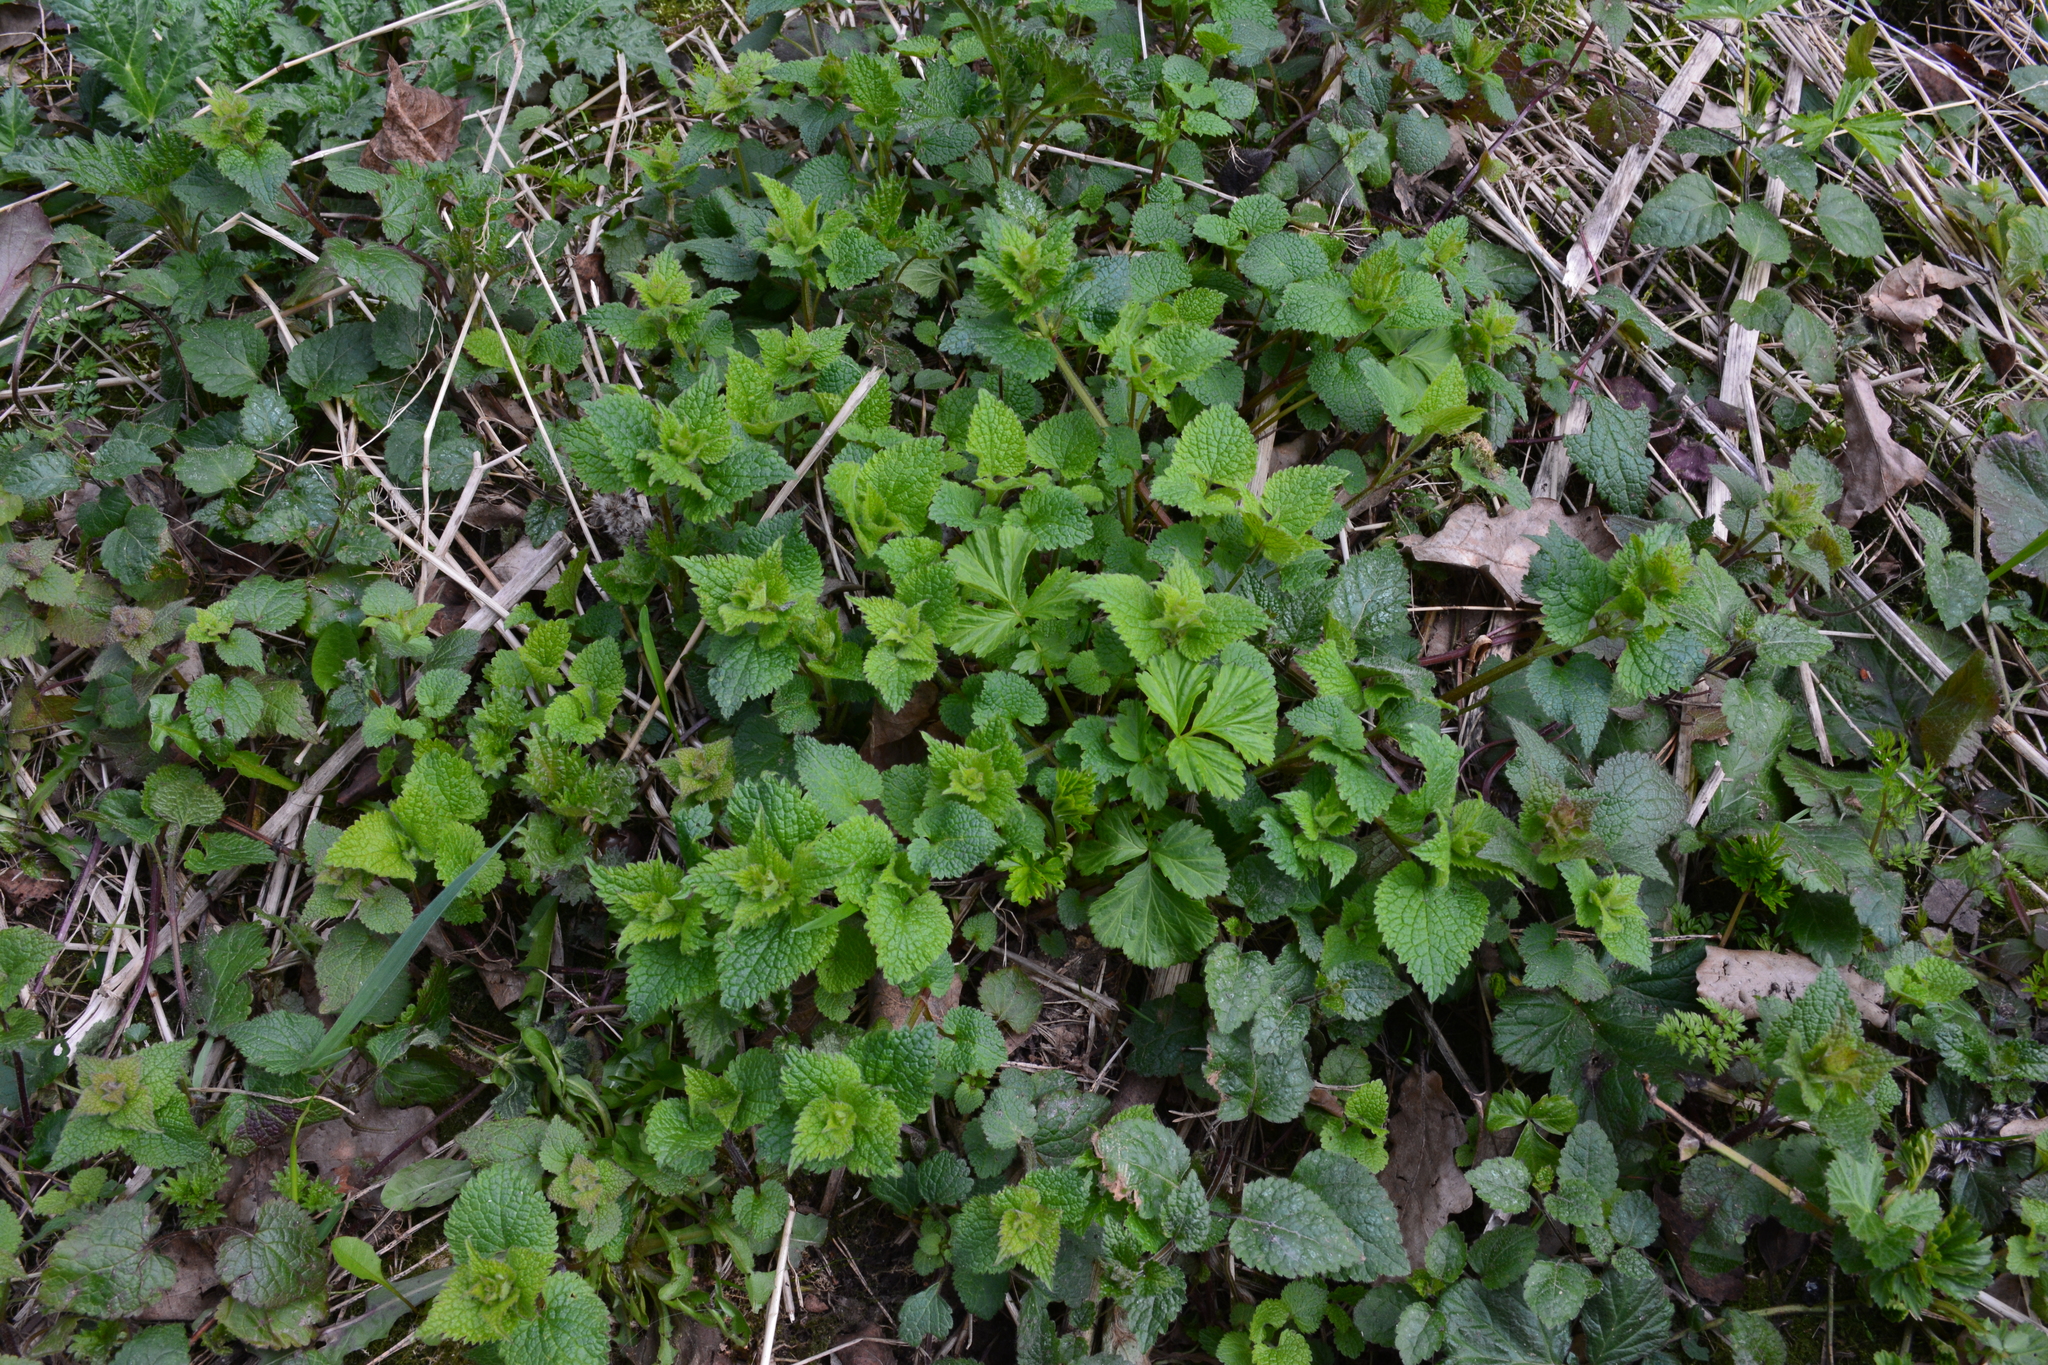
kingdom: Plantae
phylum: Tracheophyta
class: Magnoliopsida
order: Lamiales
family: Lamiaceae
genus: Lamium
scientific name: Lamium album
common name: White dead-nettle
